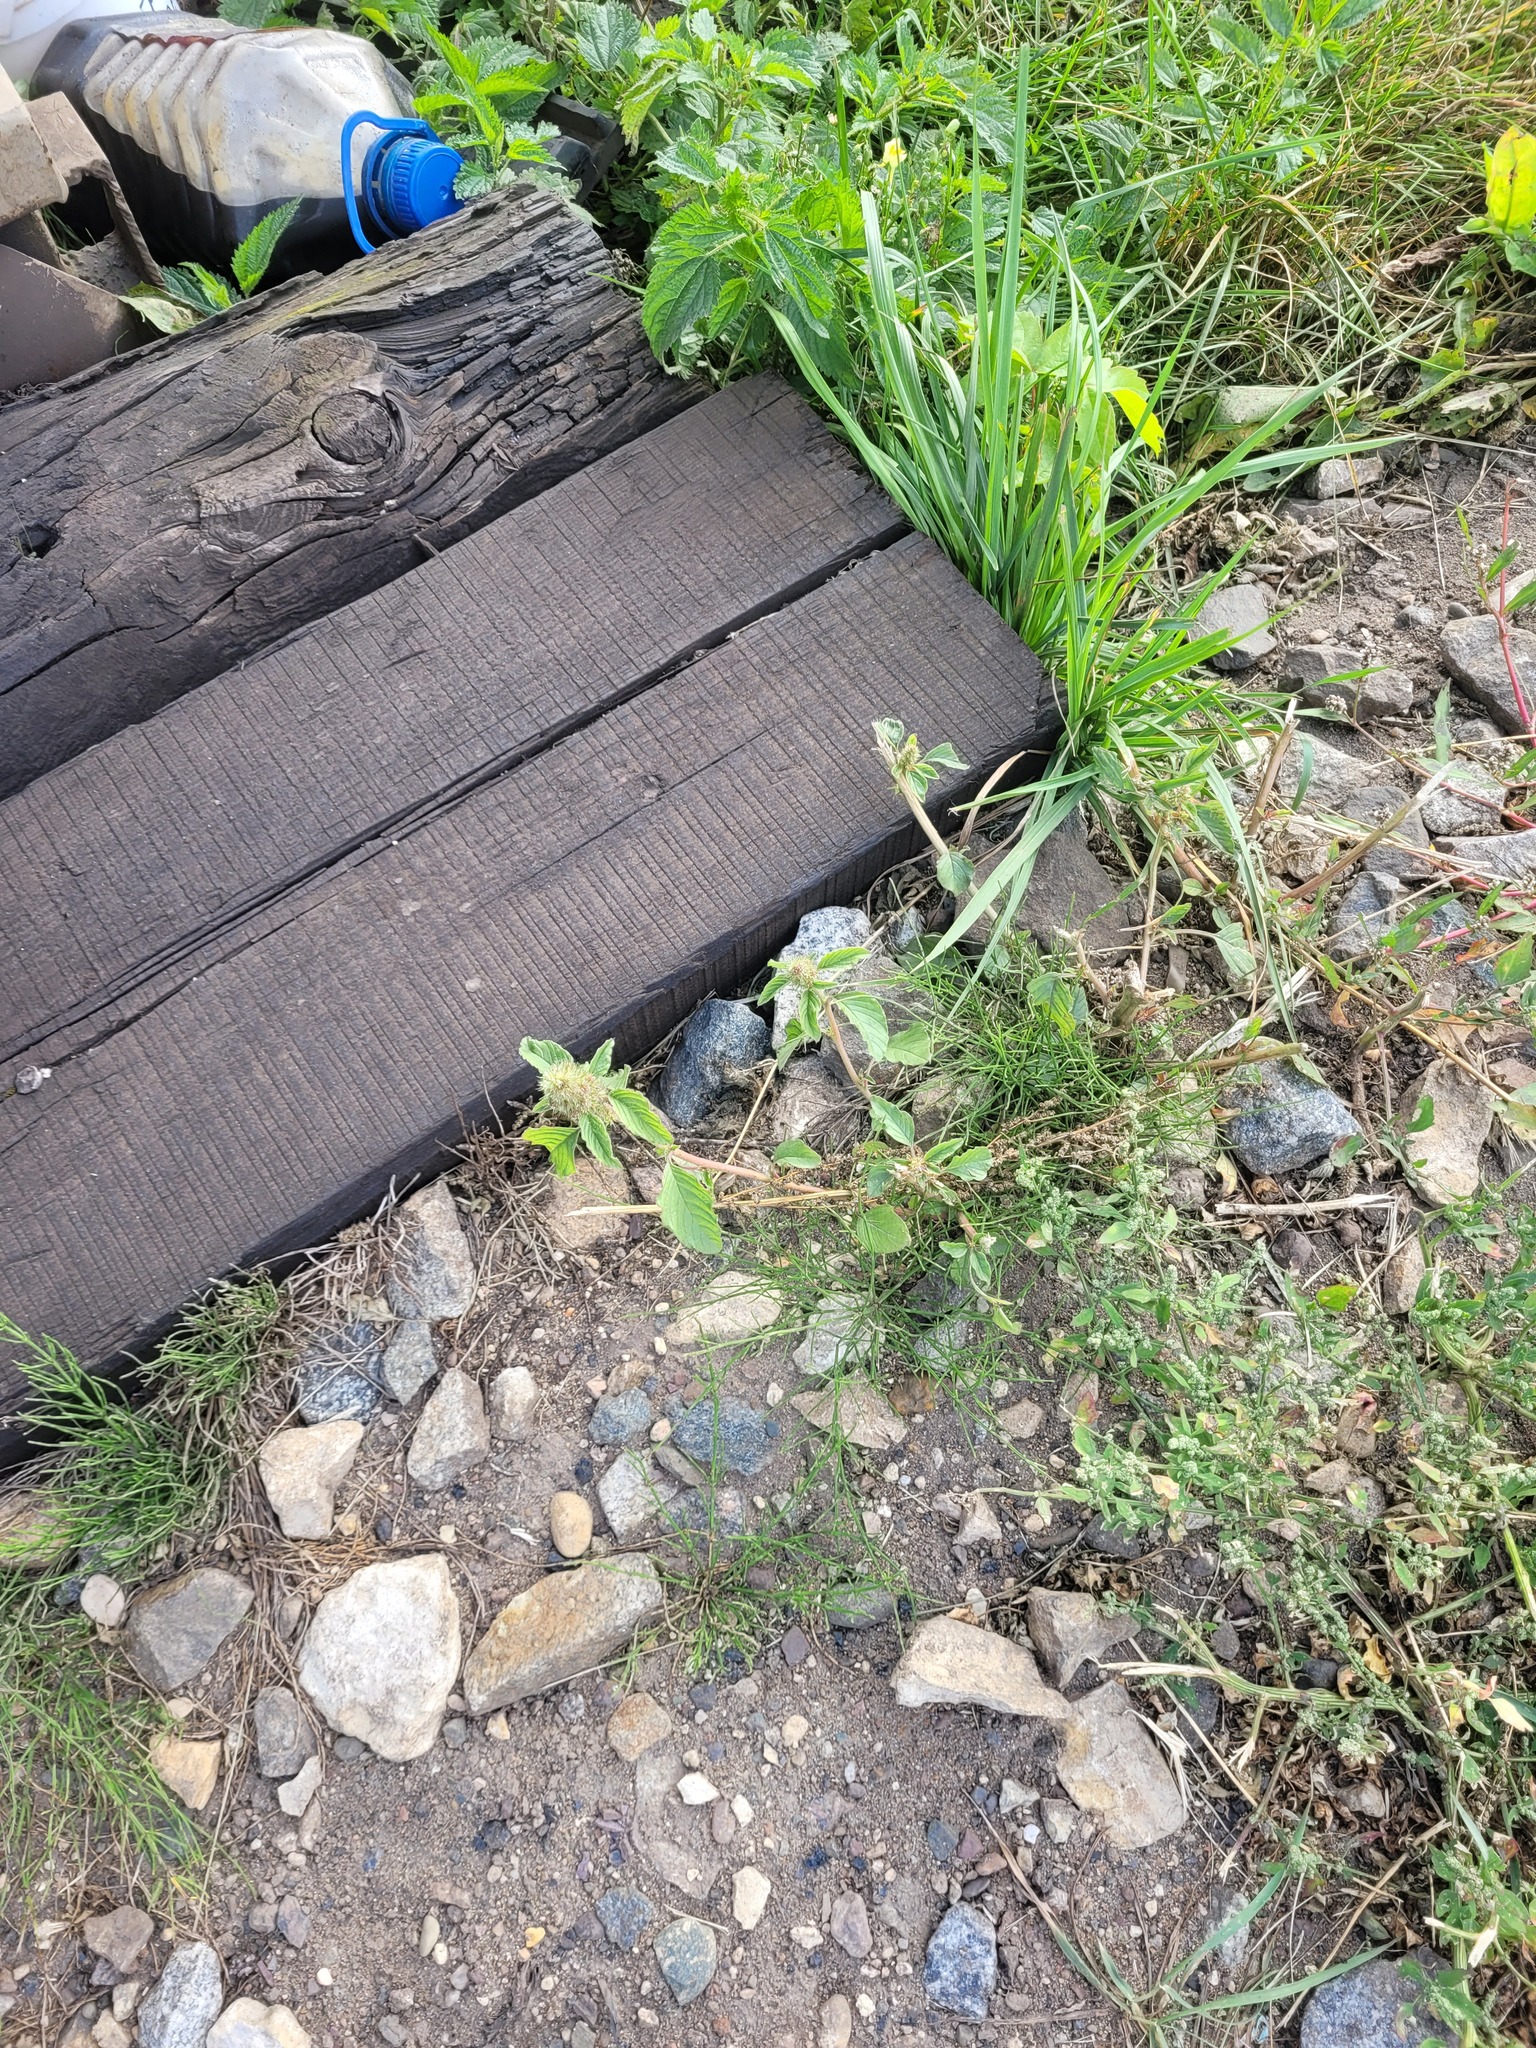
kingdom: Plantae
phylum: Tracheophyta
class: Magnoliopsida
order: Caryophyllales
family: Amaranthaceae
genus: Amaranthus
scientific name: Amaranthus retroflexus
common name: Redroot amaranth
